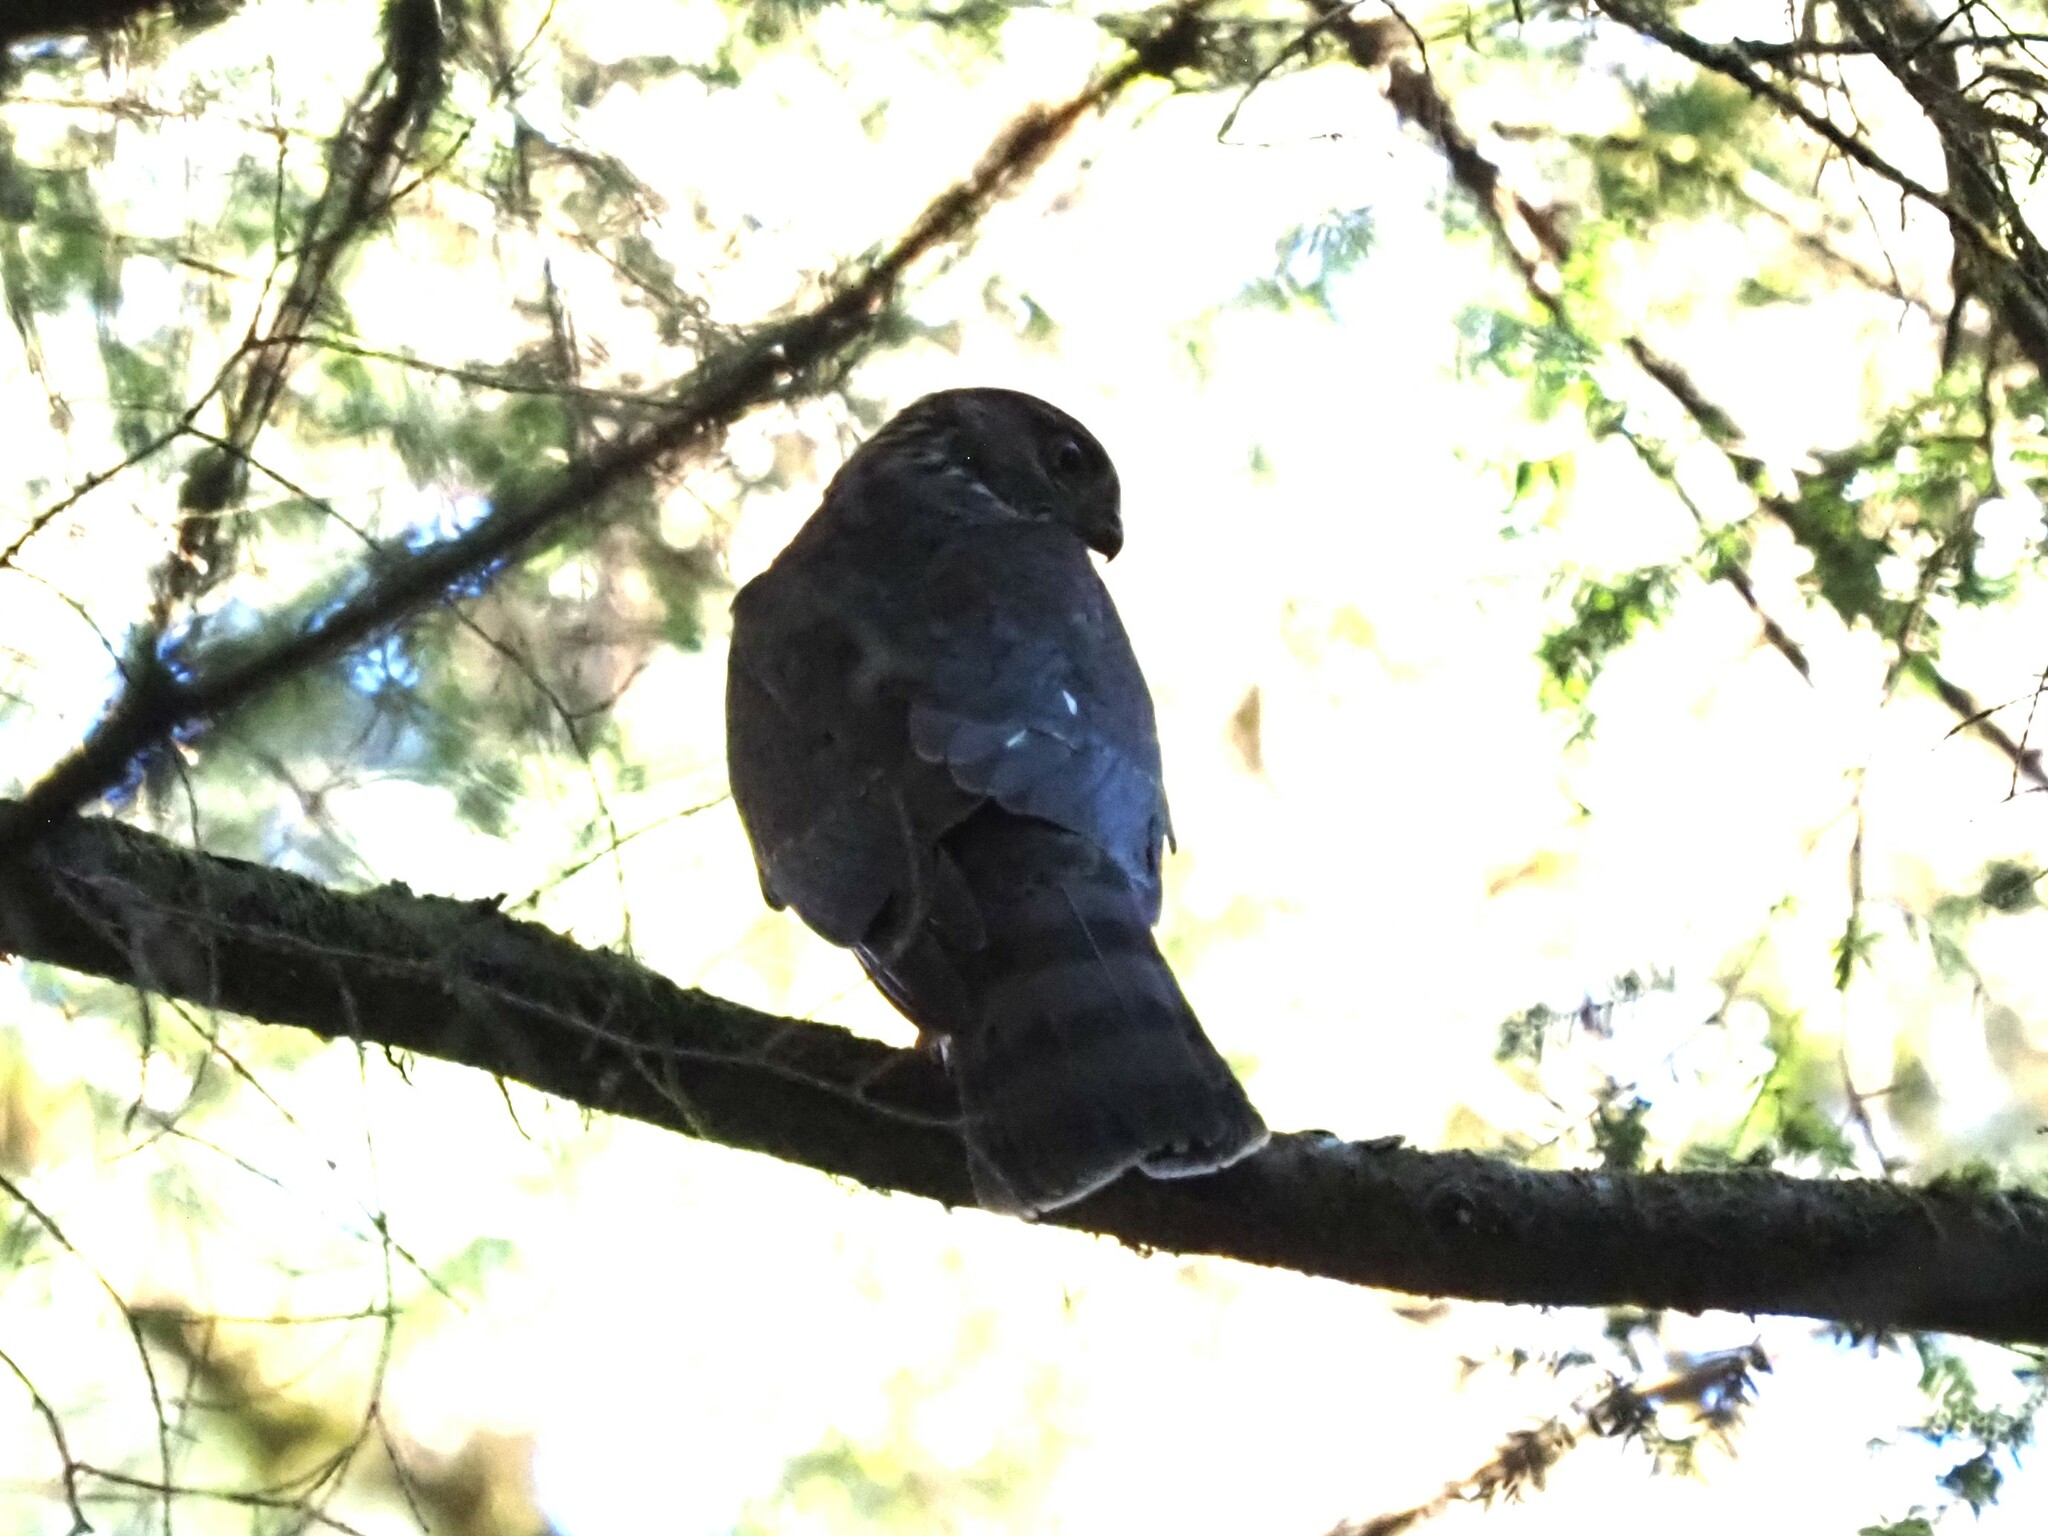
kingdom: Animalia
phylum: Chordata
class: Aves
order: Accipitriformes
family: Accipitridae
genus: Accipiter
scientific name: Accipiter striatus
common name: Sharp-shinned hawk
